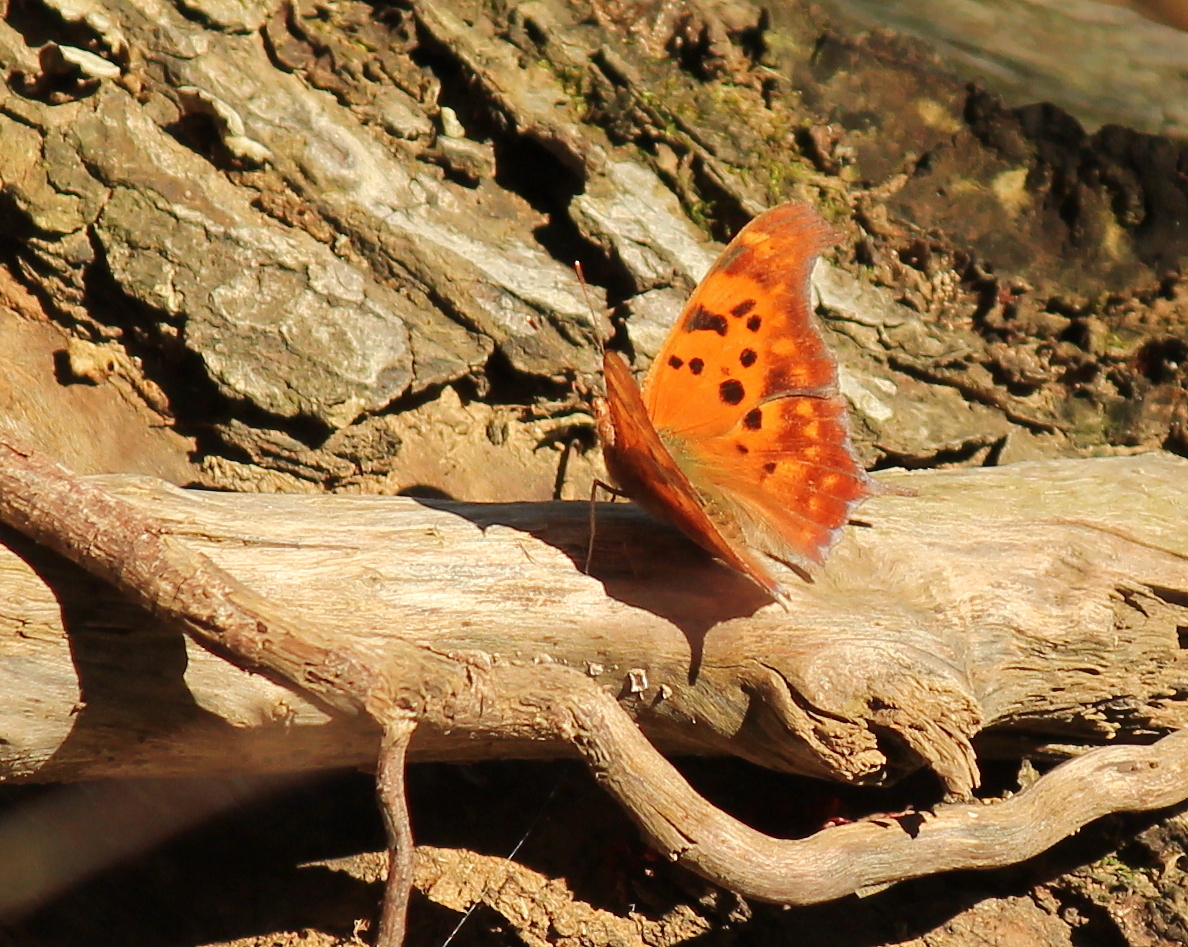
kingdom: Animalia
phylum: Arthropoda
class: Insecta
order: Lepidoptera
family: Nymphalidae
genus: Polygonia
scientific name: Polygonia interrogationis
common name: Question mark
